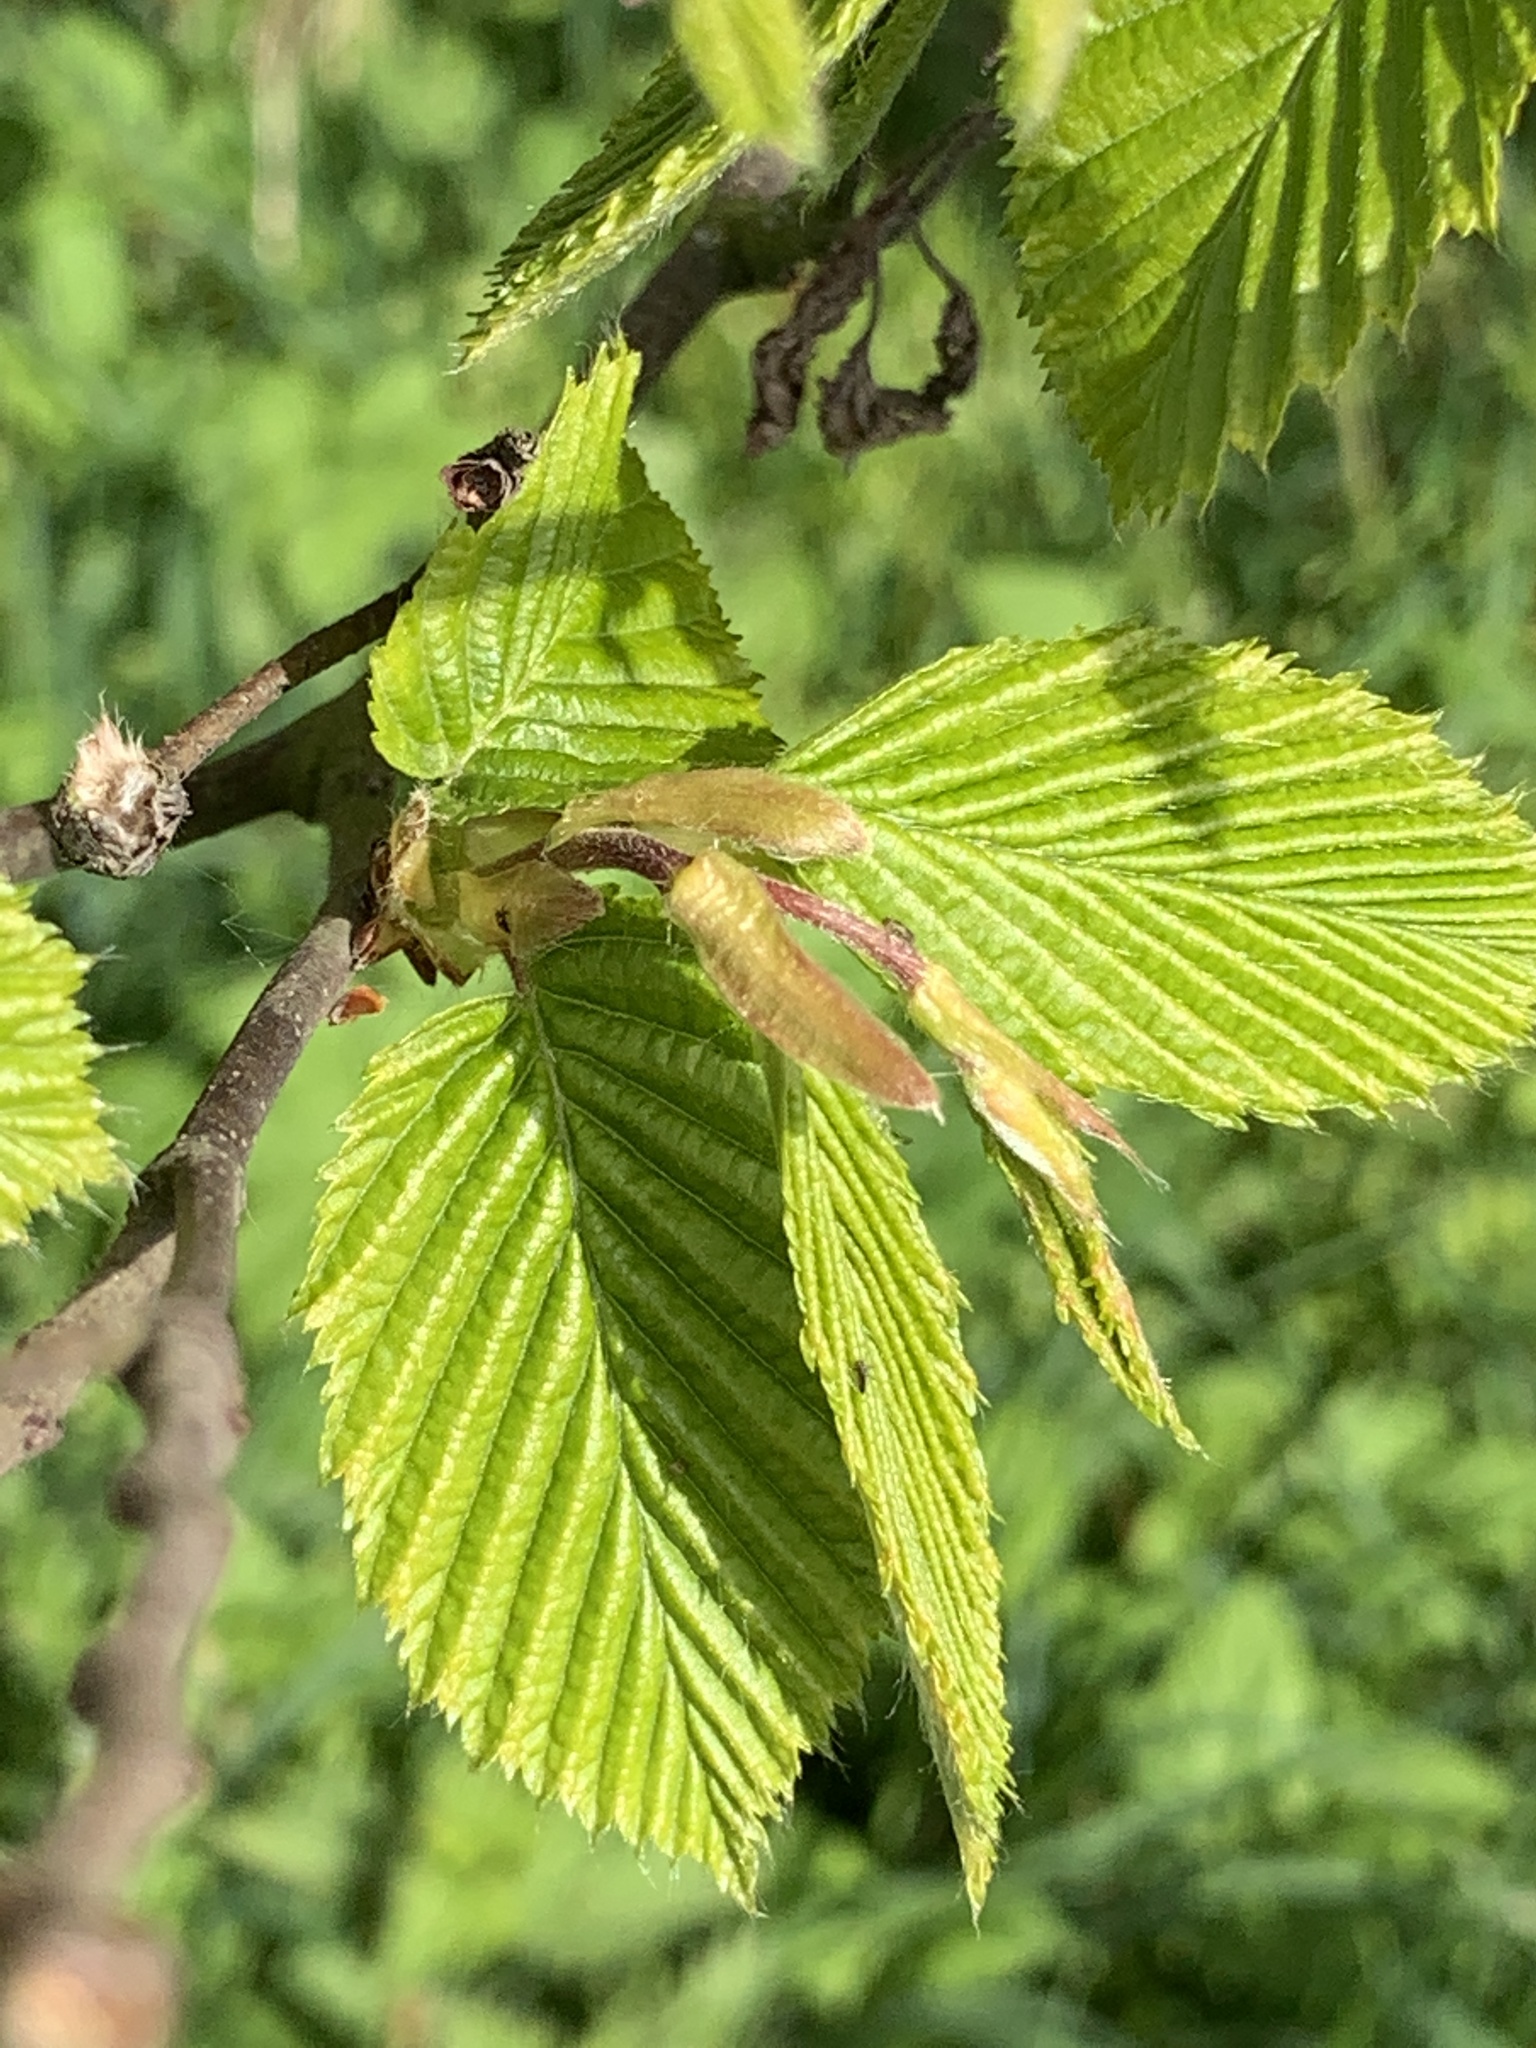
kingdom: Plantae
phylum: Tracheophyta
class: Magnoliopsida
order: Fagales
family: Betulaceae
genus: Carpinus
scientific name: Carpinus betulus
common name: Hornbeam
